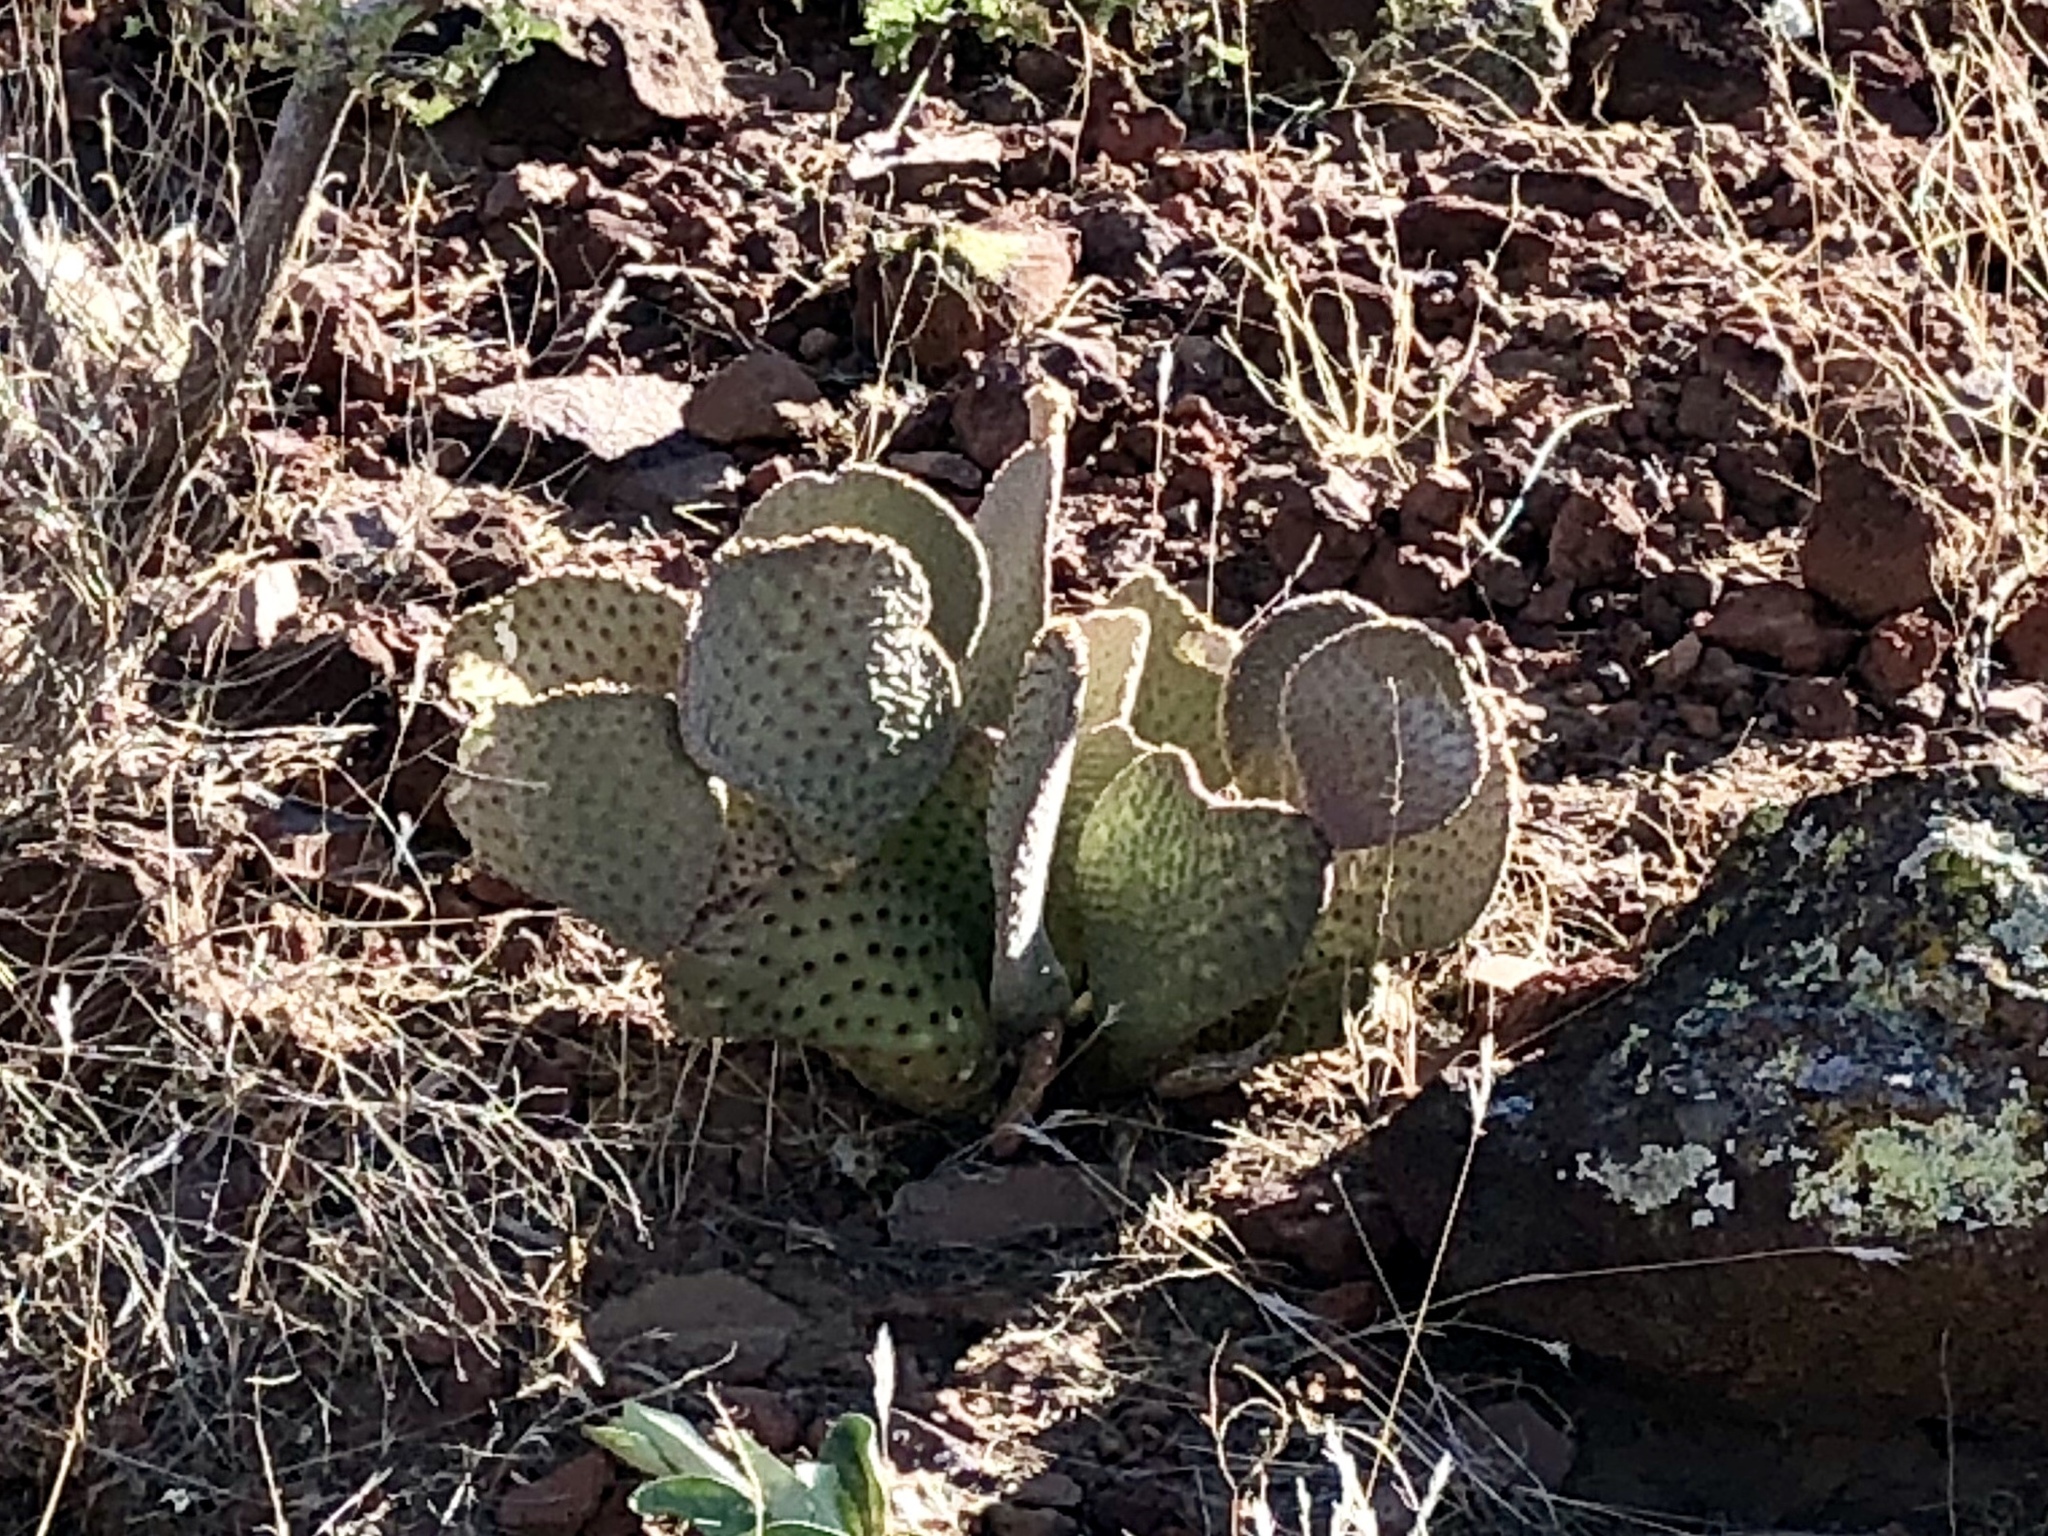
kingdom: Plantae
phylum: Tracheophyta
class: Magnoliopsida
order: Caryophyllales
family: Cactaceae
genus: Opuntia
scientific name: Opuntia basilaris
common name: Beavertail prickly-pear
